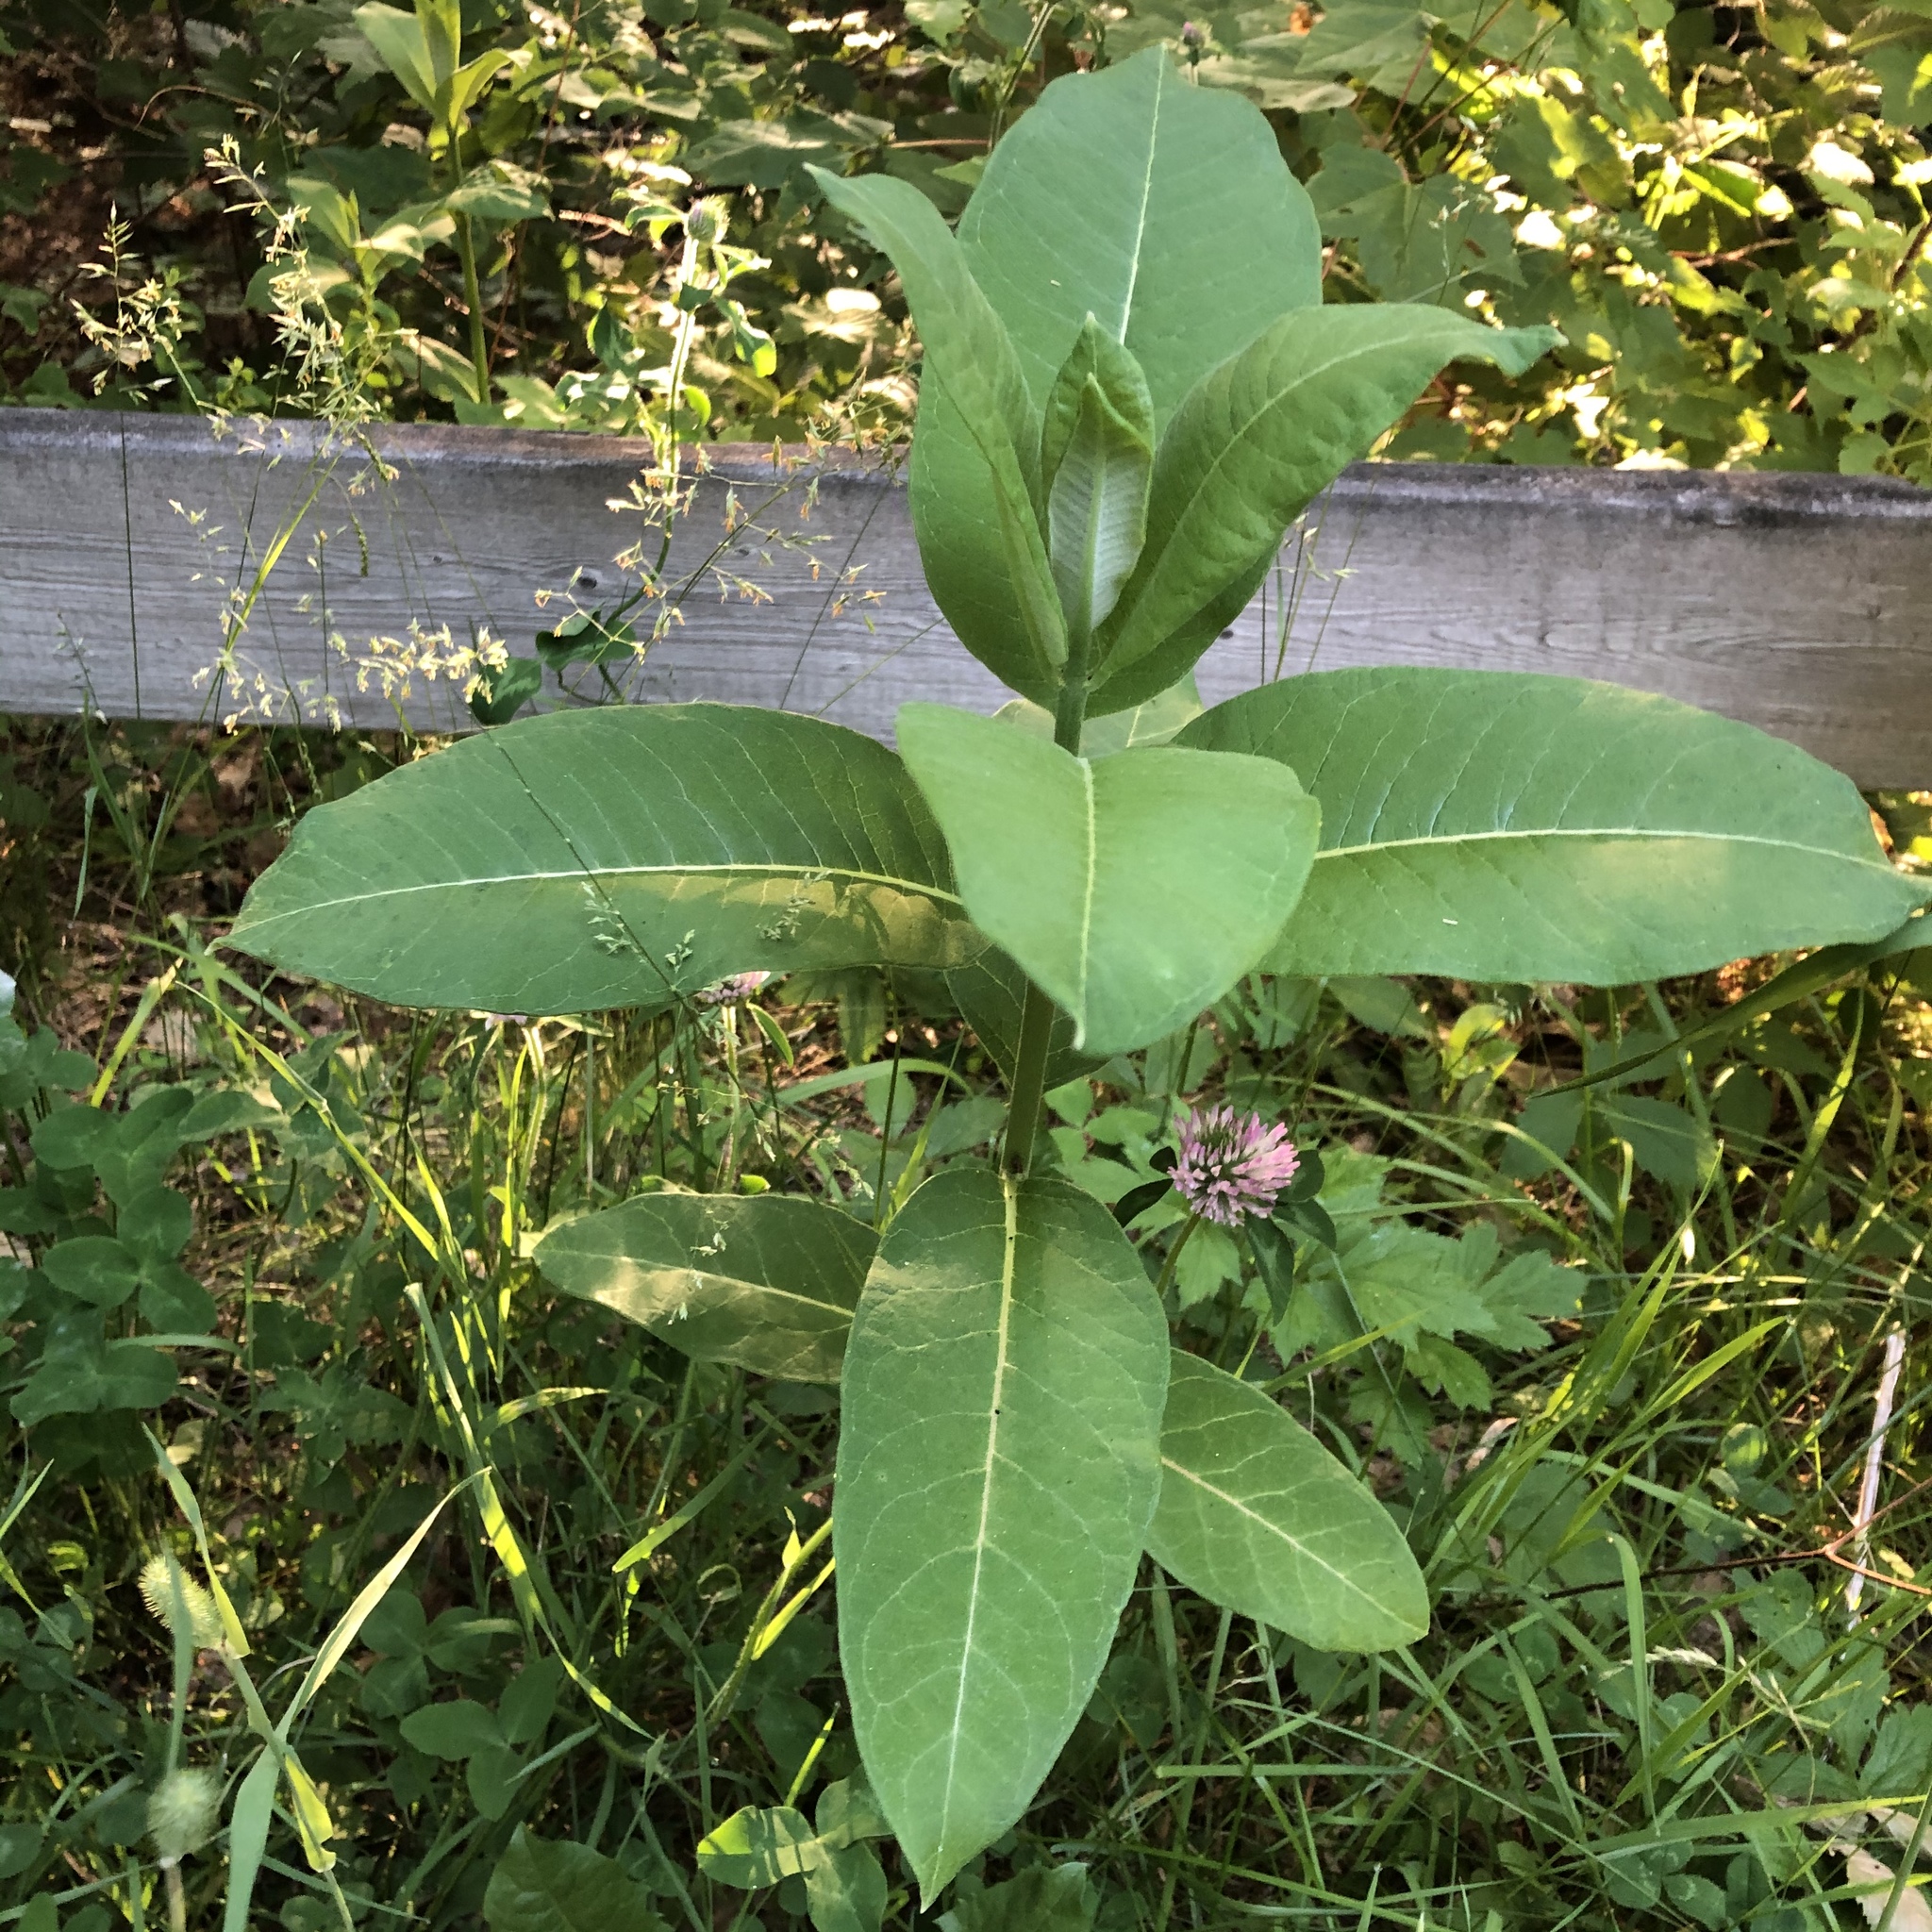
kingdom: Plantae
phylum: Tracheophyta
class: Magnoliopsida
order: Gentianales
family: Apocynaceae
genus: Asclepias
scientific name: Asclepias syriaca
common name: Common milkweed
